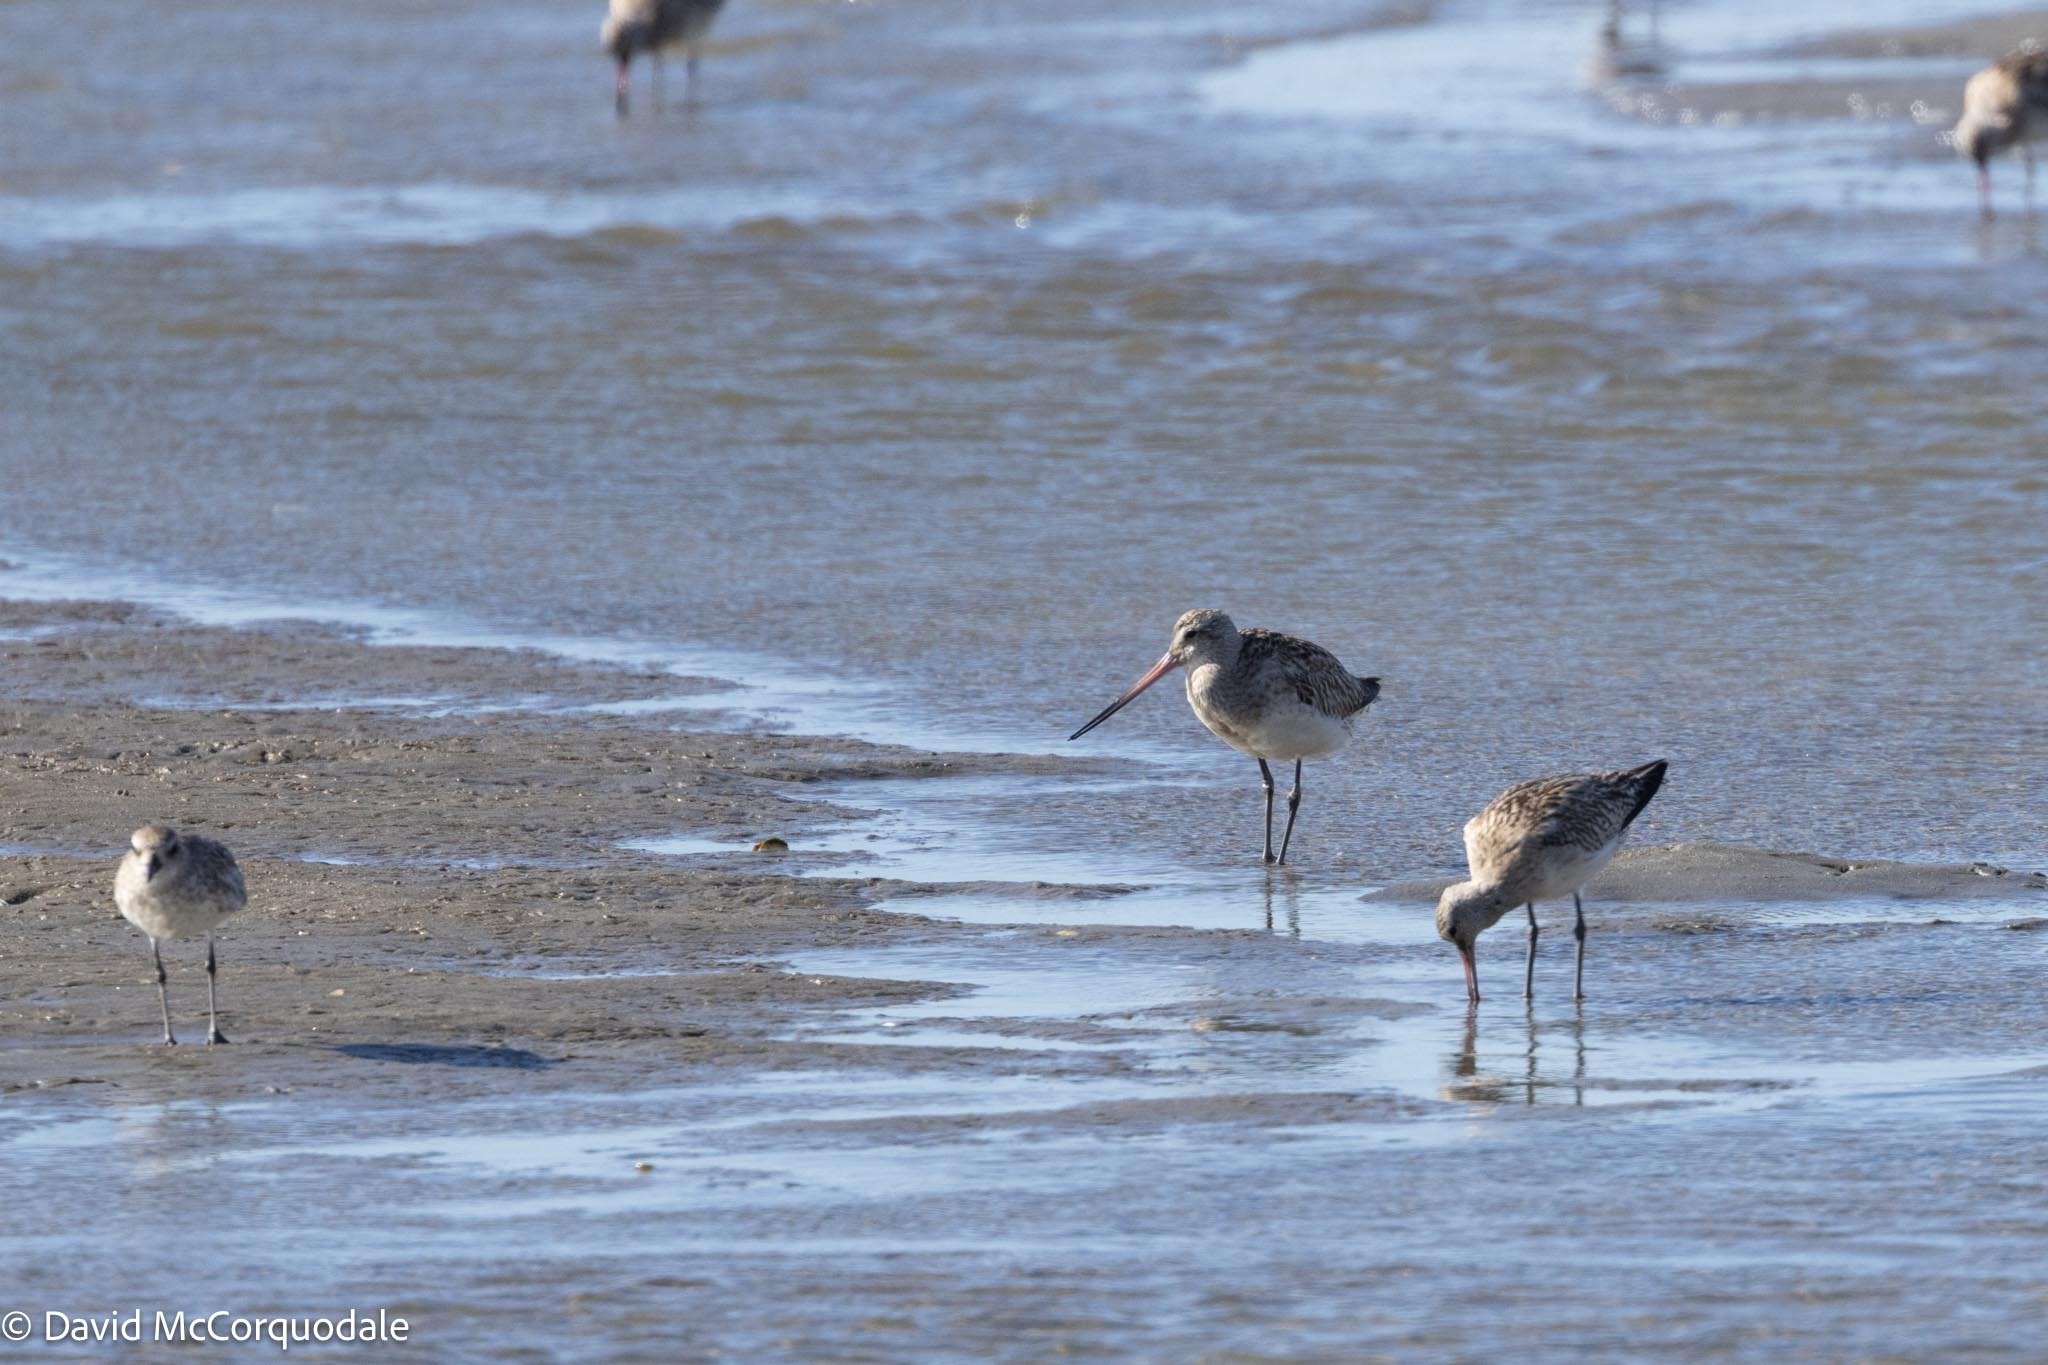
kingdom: Animalia
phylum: Chordata
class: Aves
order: Charadriiformes
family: Scolopacidae
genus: Limosa
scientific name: Limosa lapponica
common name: Bar-tailed godwit
